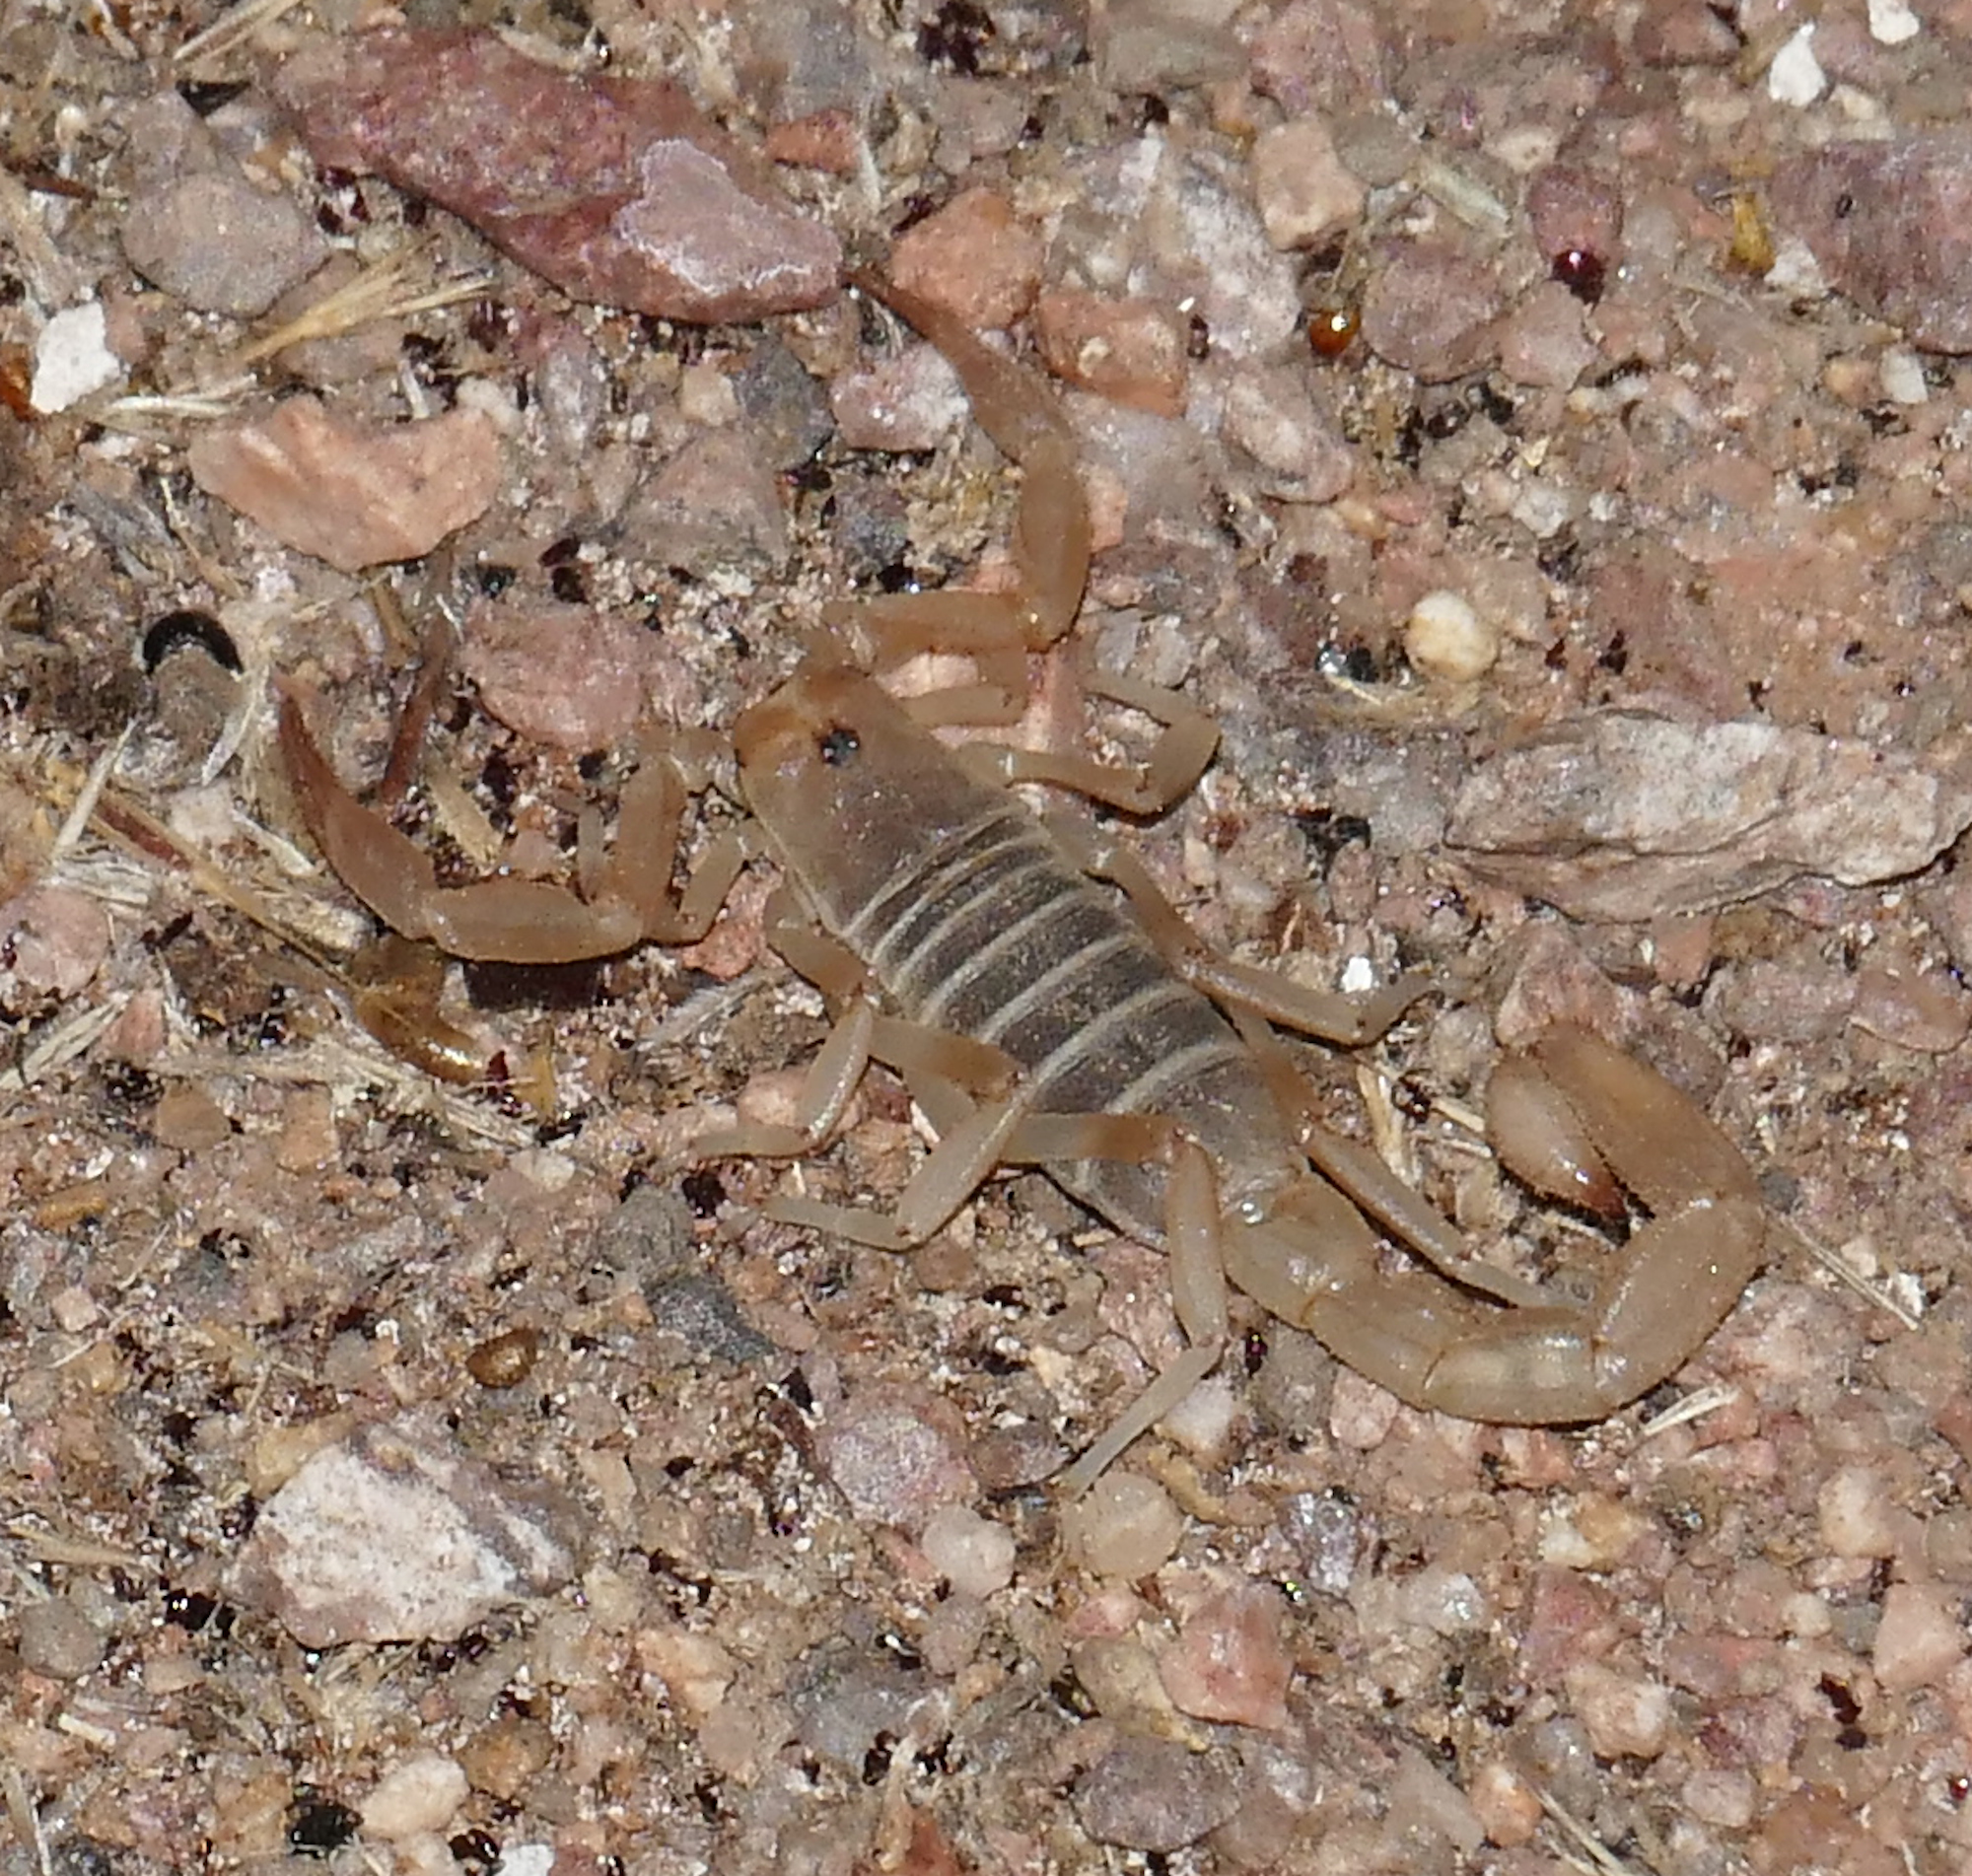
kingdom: Animalia
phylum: Arthropoda
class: Arachnida
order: Scorpiones
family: Vaejovidae
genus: Paravaejovis
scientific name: Paravaejovis confusus
